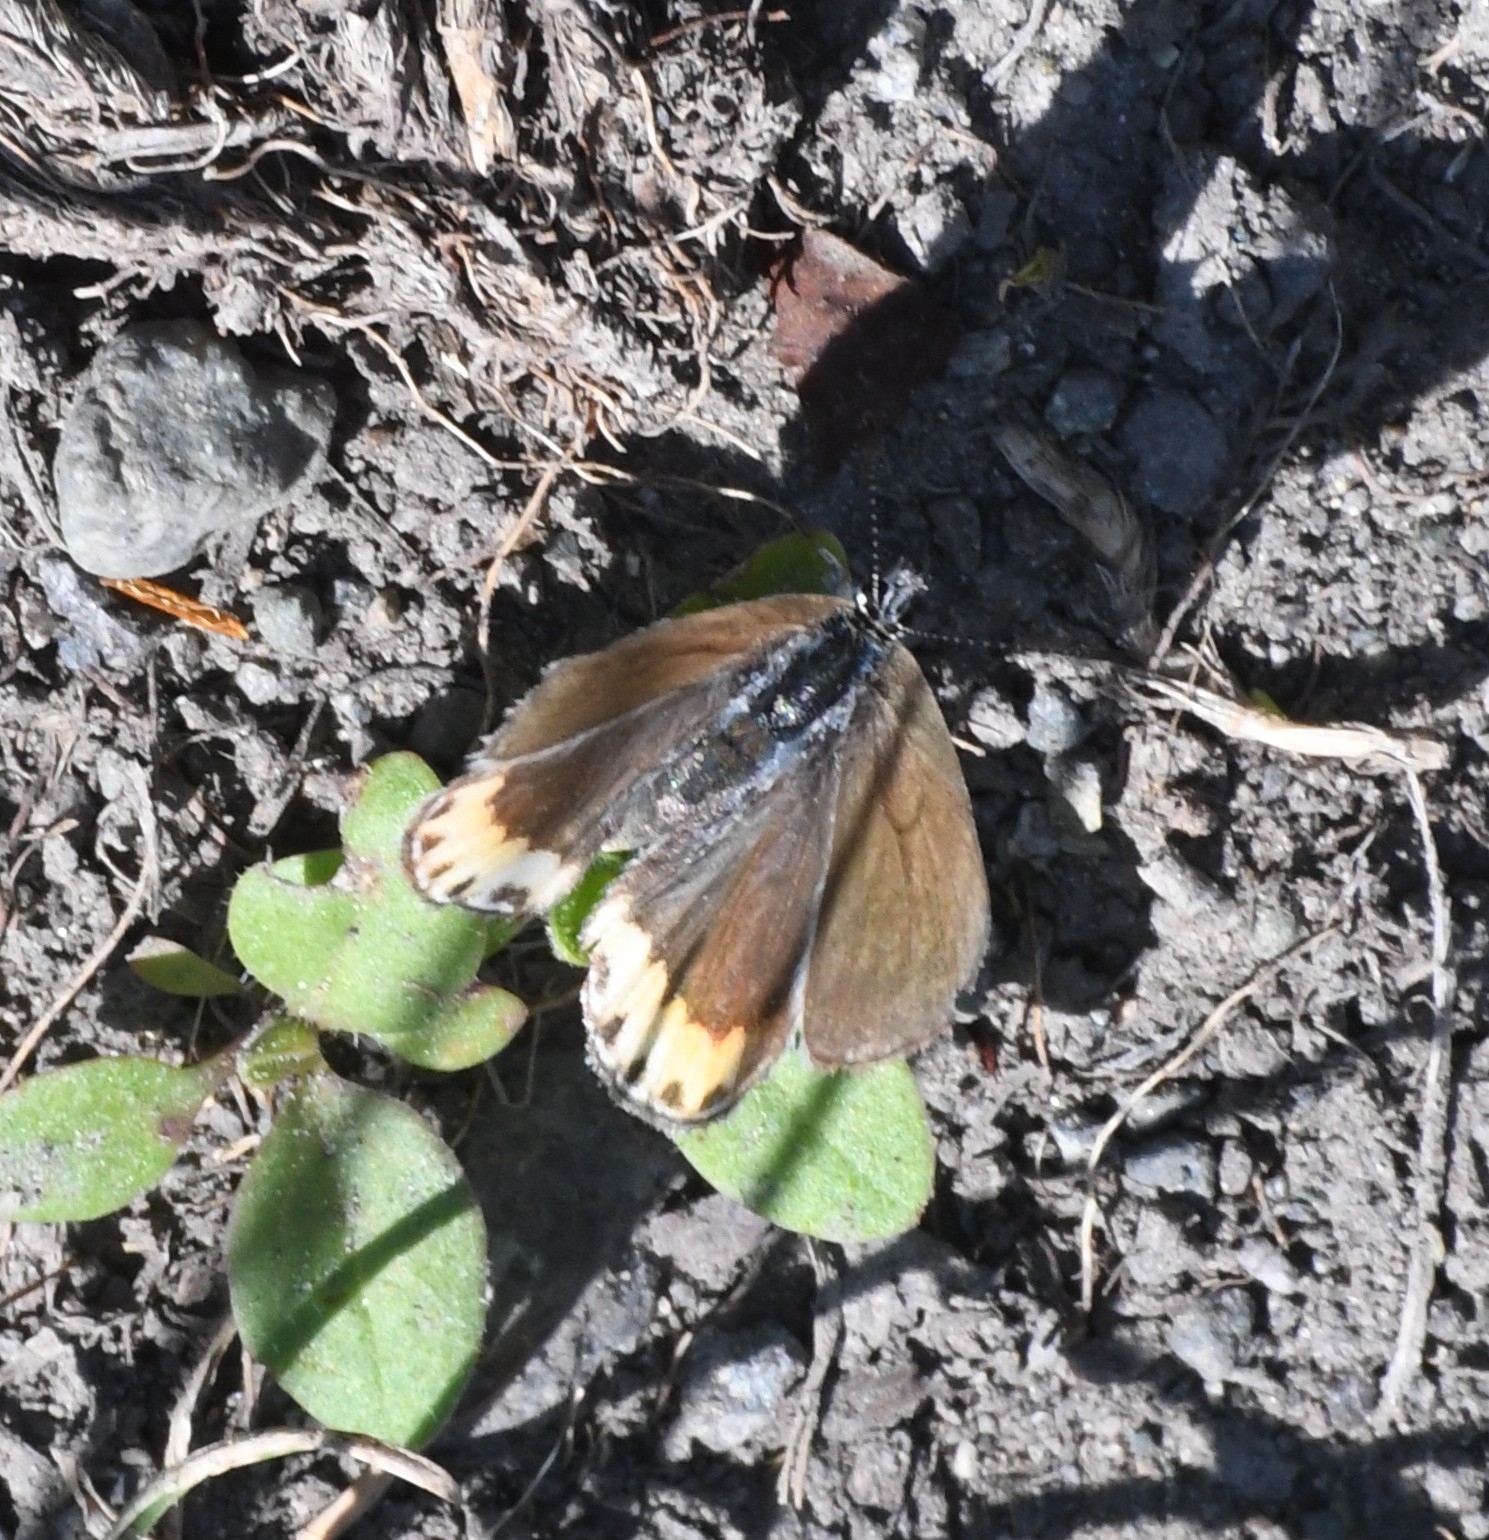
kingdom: Animalia
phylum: Arthropoda
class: Insecta
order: Lepidoptera
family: Lycaenidae
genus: Icaricia
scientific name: Icaricia lupini
